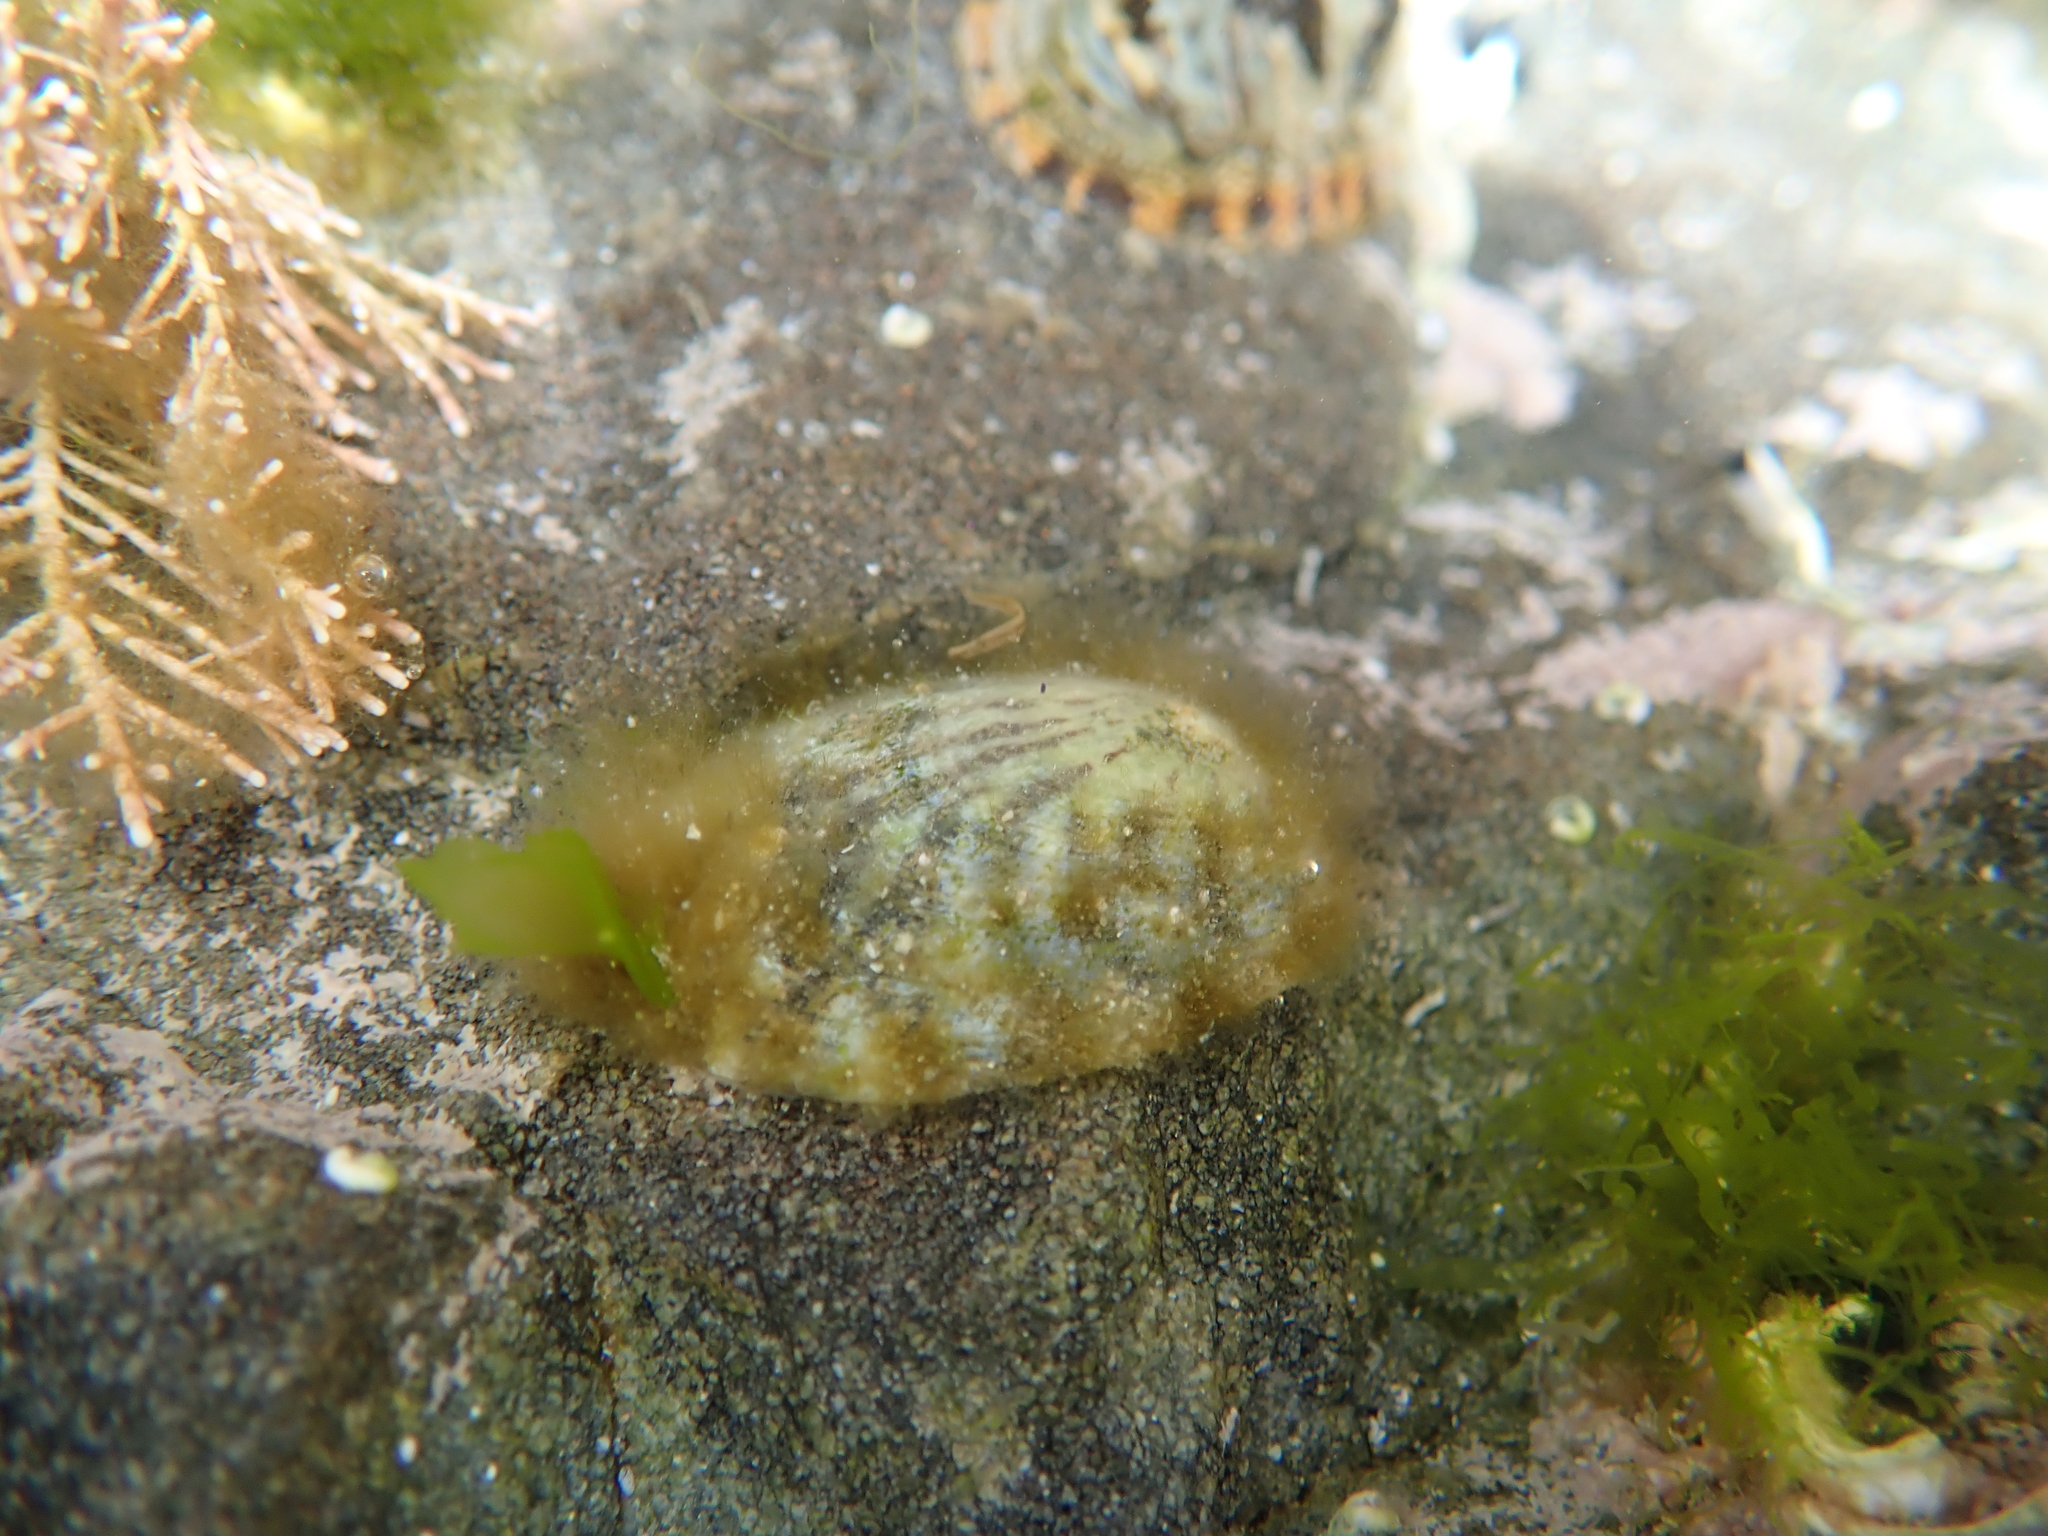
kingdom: Animalia
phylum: Mollusca
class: Gastropoda
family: Nacellidae
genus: Cellana
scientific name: Cellana radians
